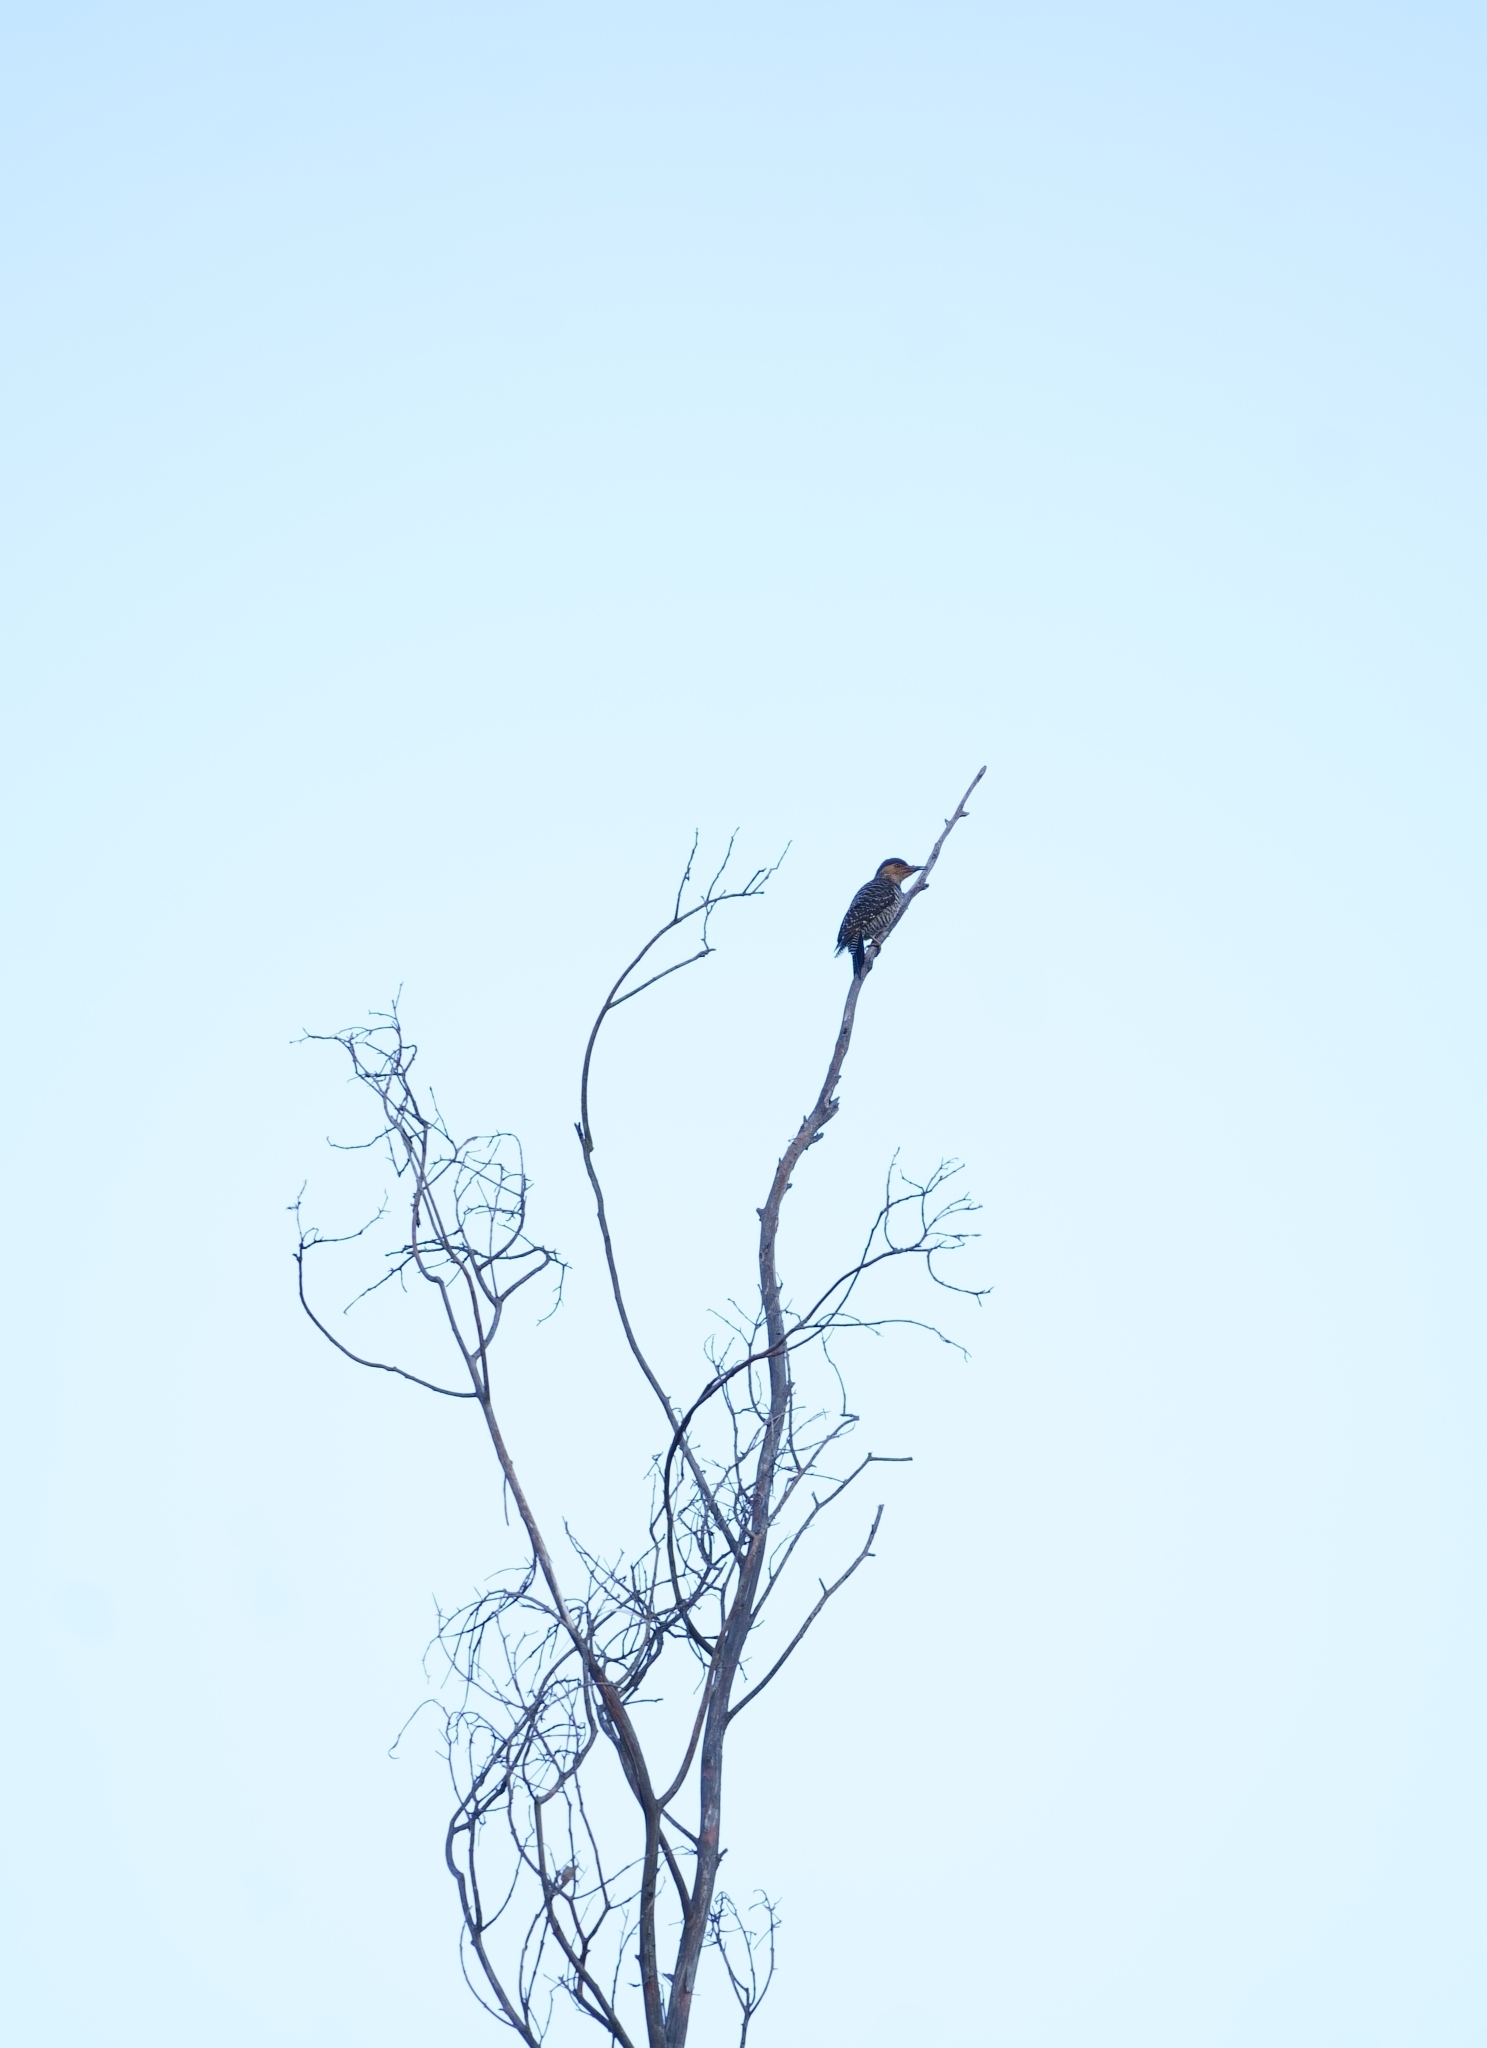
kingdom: Animalia
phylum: Chordata
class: Aves
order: Piciformes
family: Picidae
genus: Colaptes
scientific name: Colaptes pitius
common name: Chilean flicker
